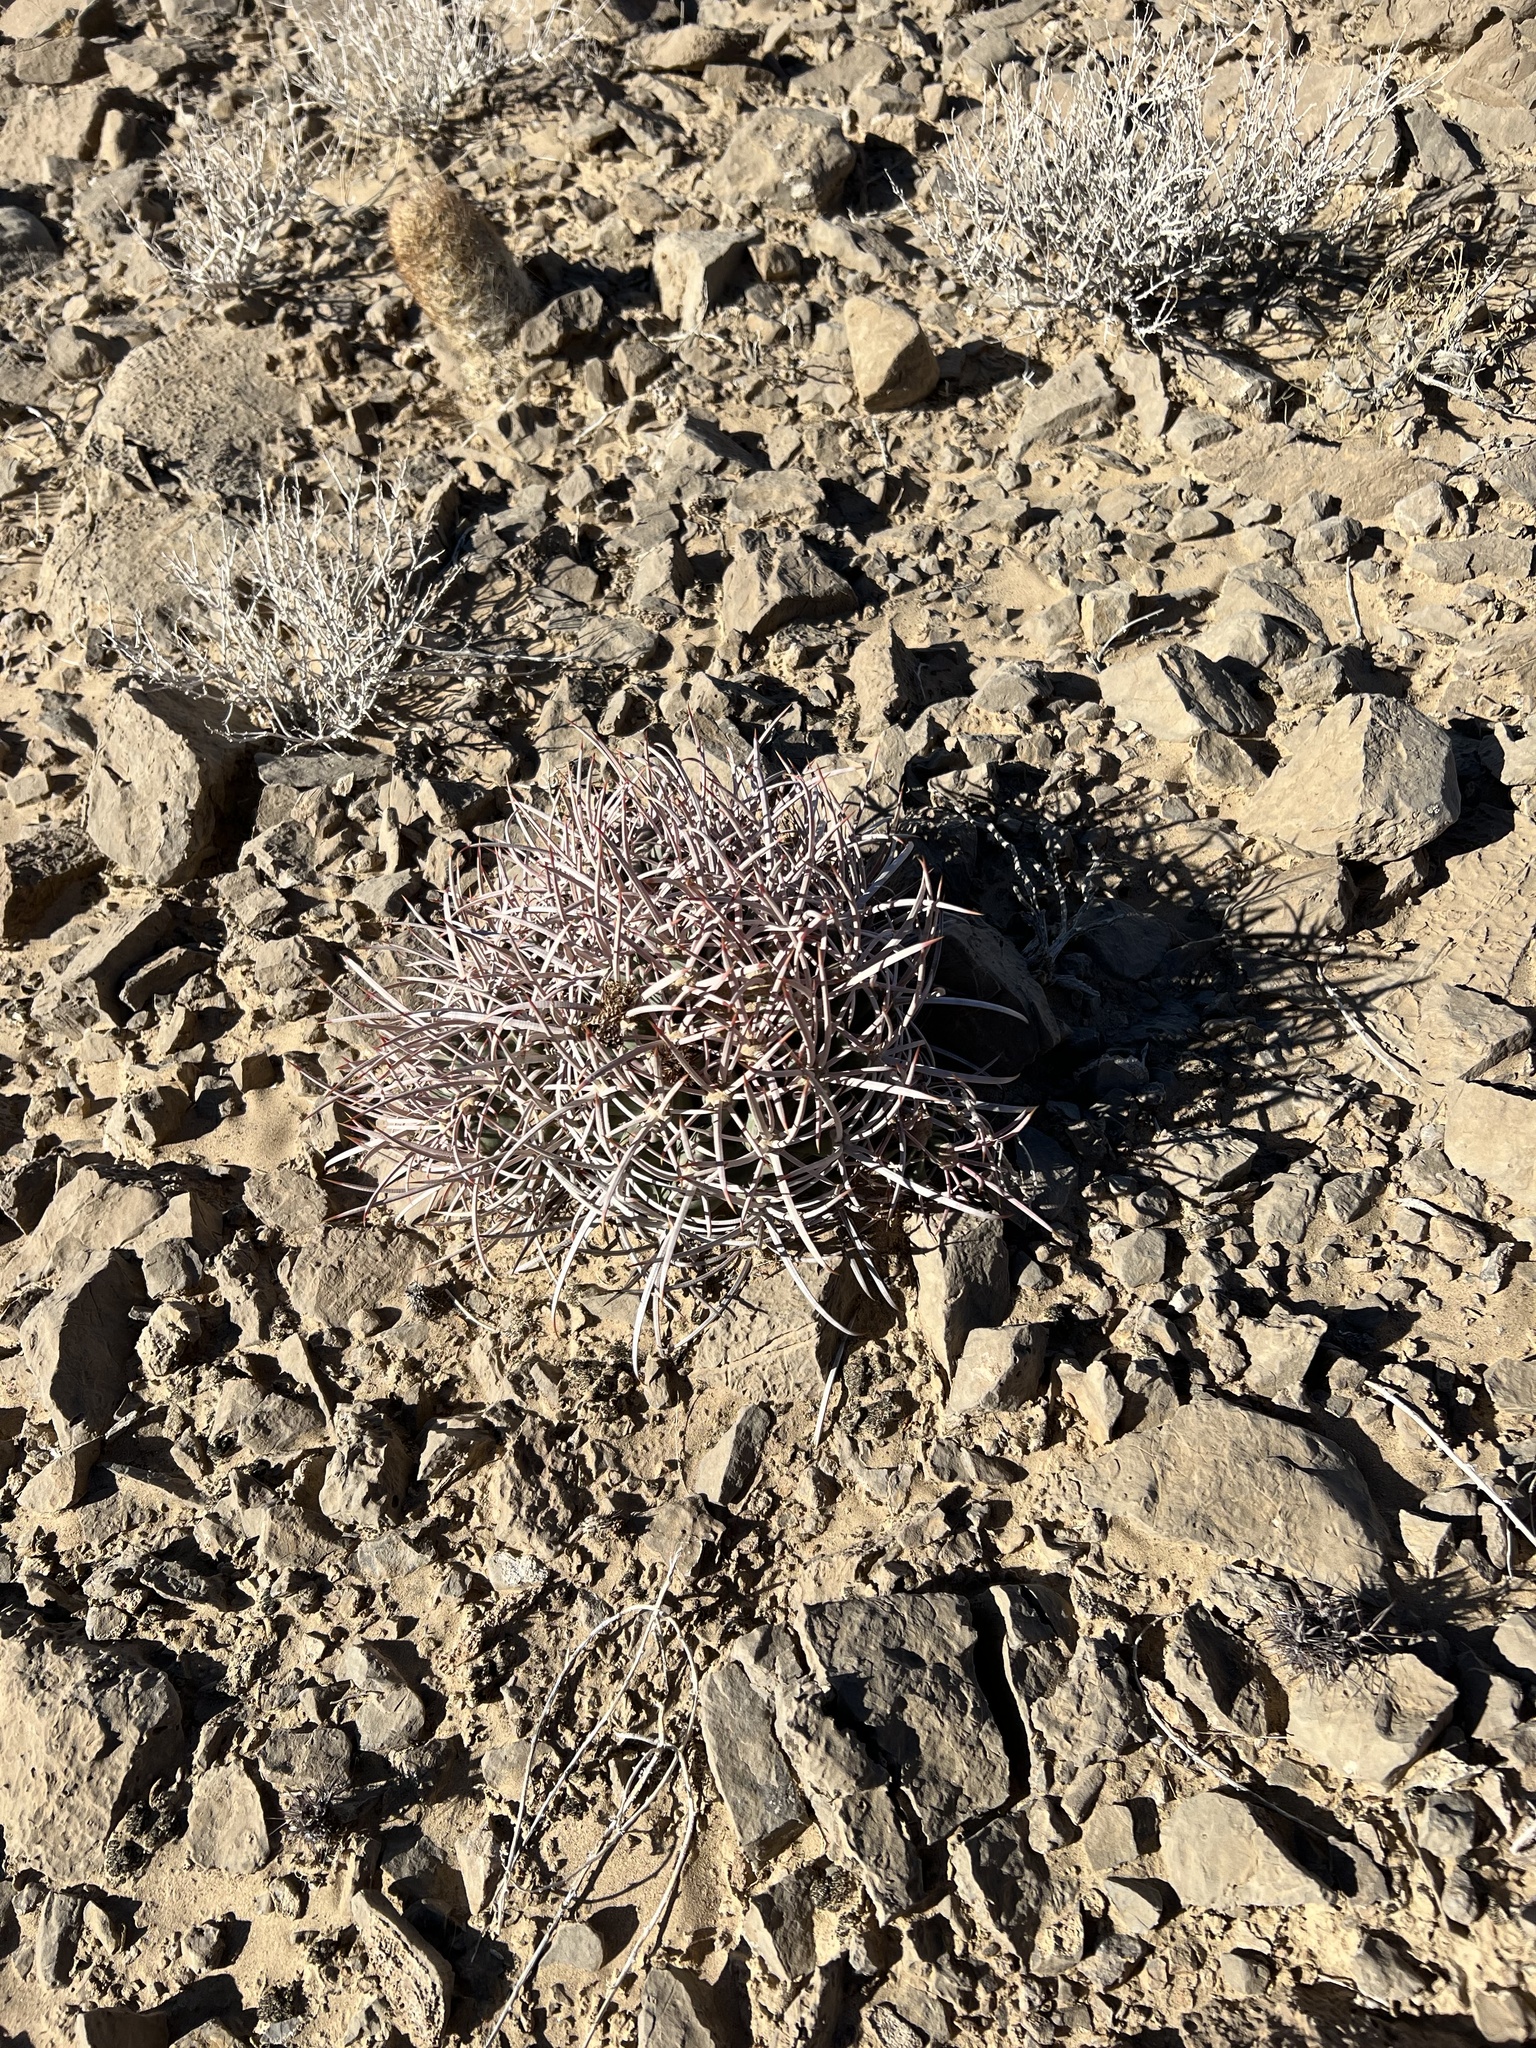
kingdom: Plantae
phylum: Tracheophyta
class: Magnoliopsida
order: Caryophyllales
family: Cactaceae
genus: Echinocactus
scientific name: Echinocactus polycephalus
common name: Cottontop cactus
